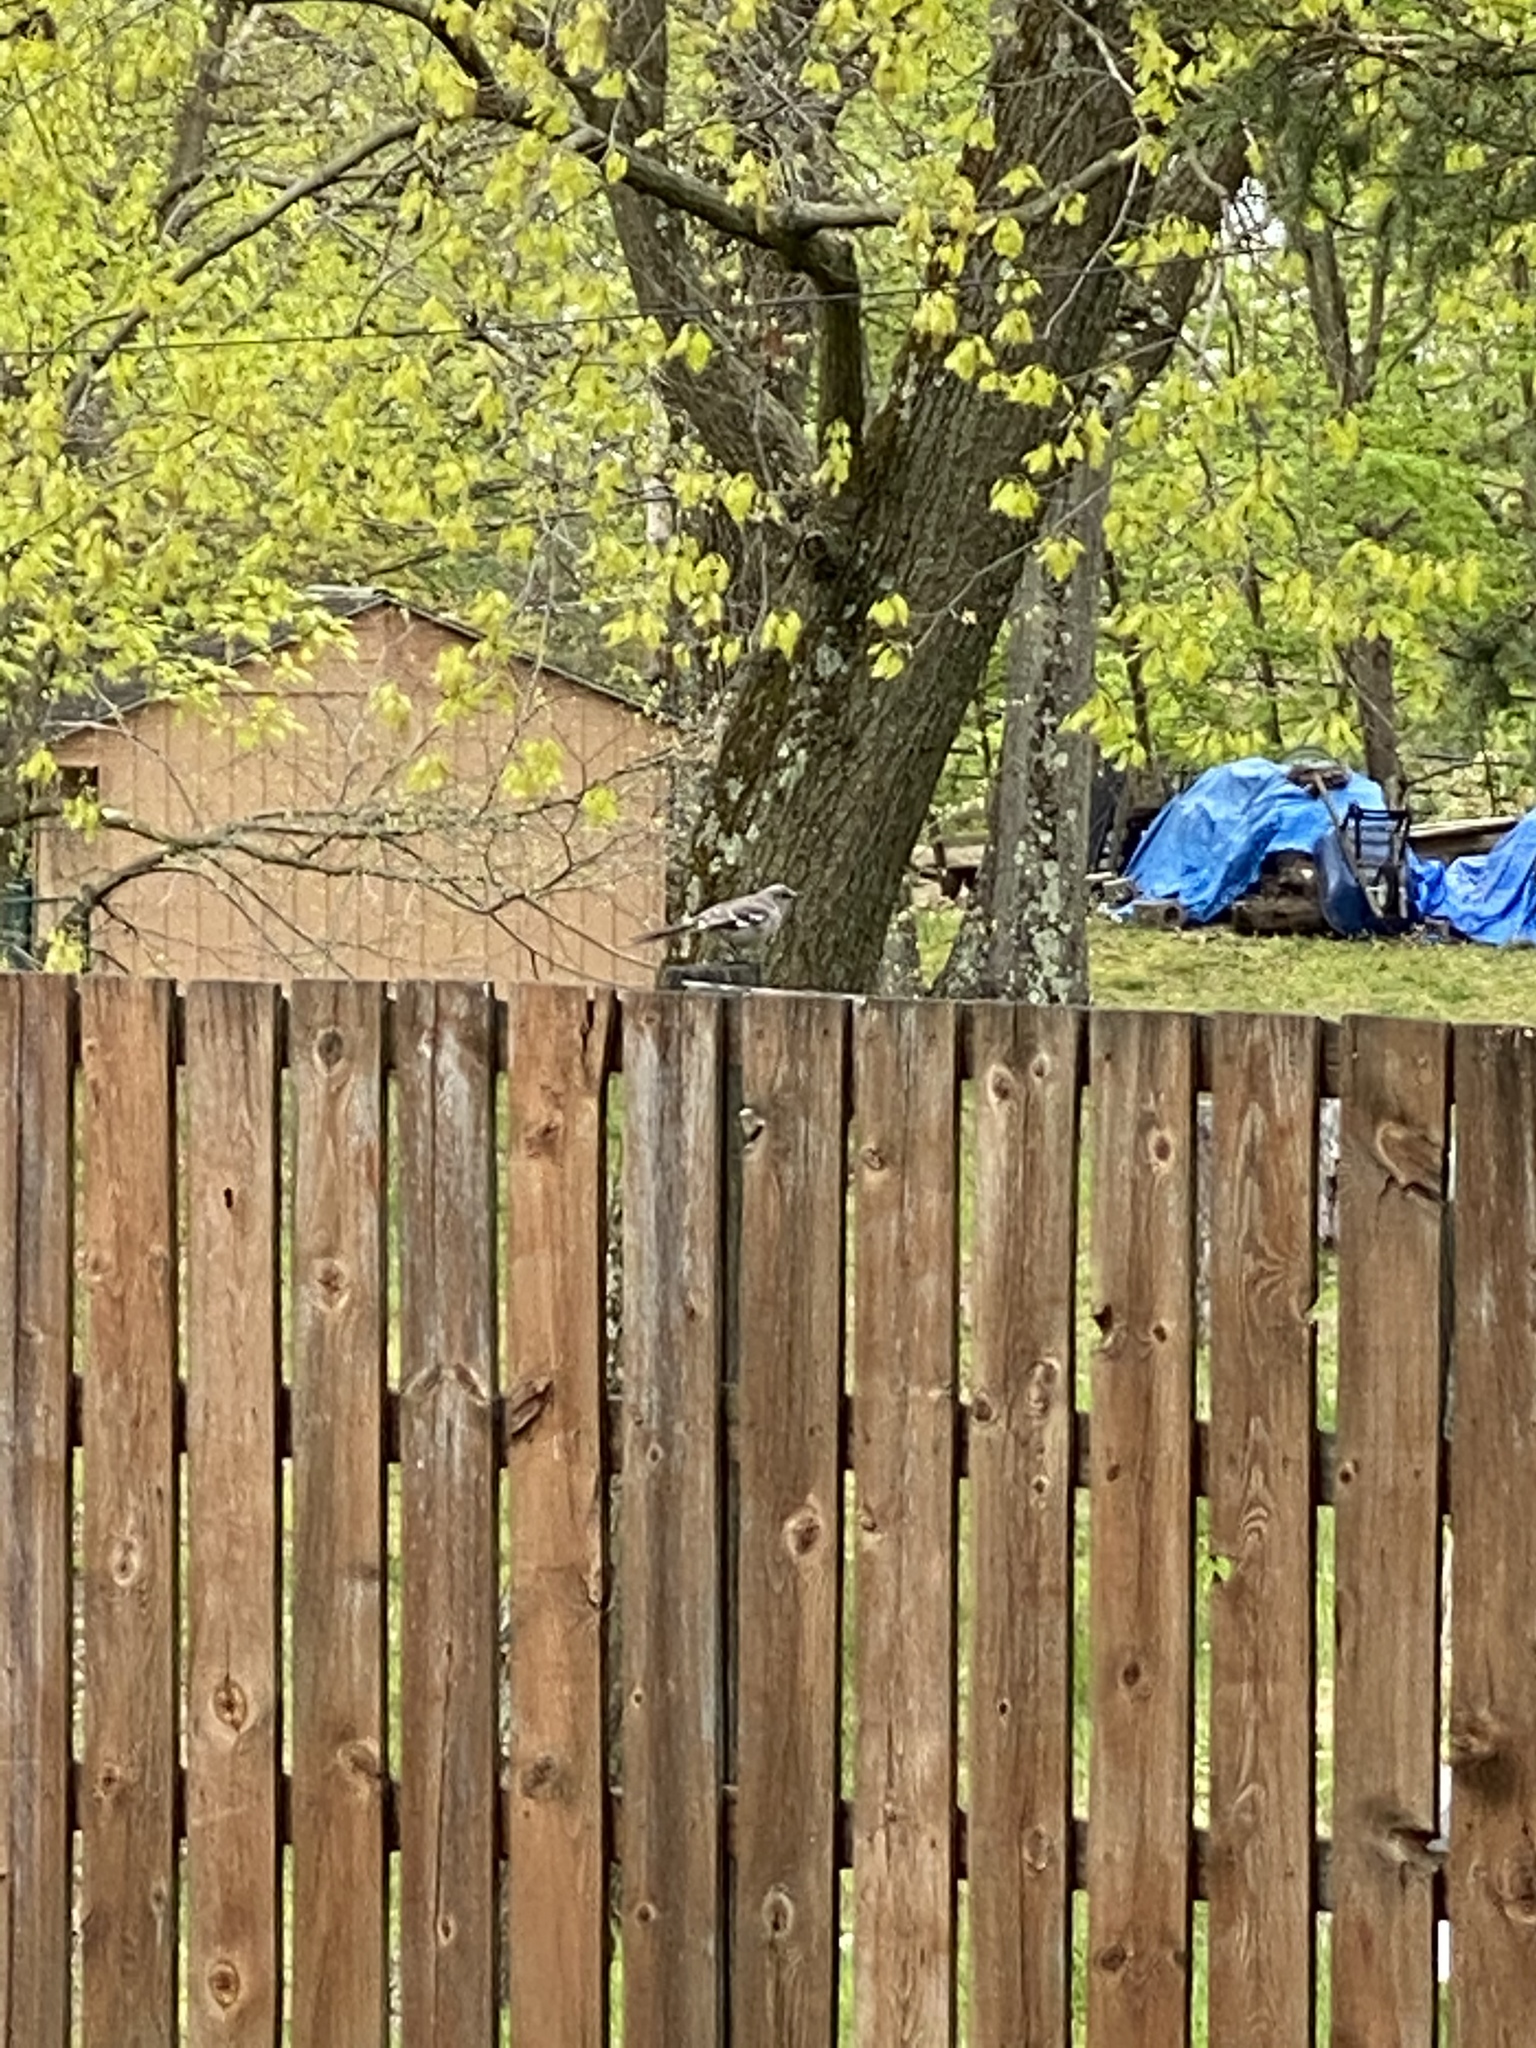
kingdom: Animalia
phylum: Chordata
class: Aves
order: Passeriformes
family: Mimidae
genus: Mimus
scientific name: Mimus polyglottos
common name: Northern mockingbird
